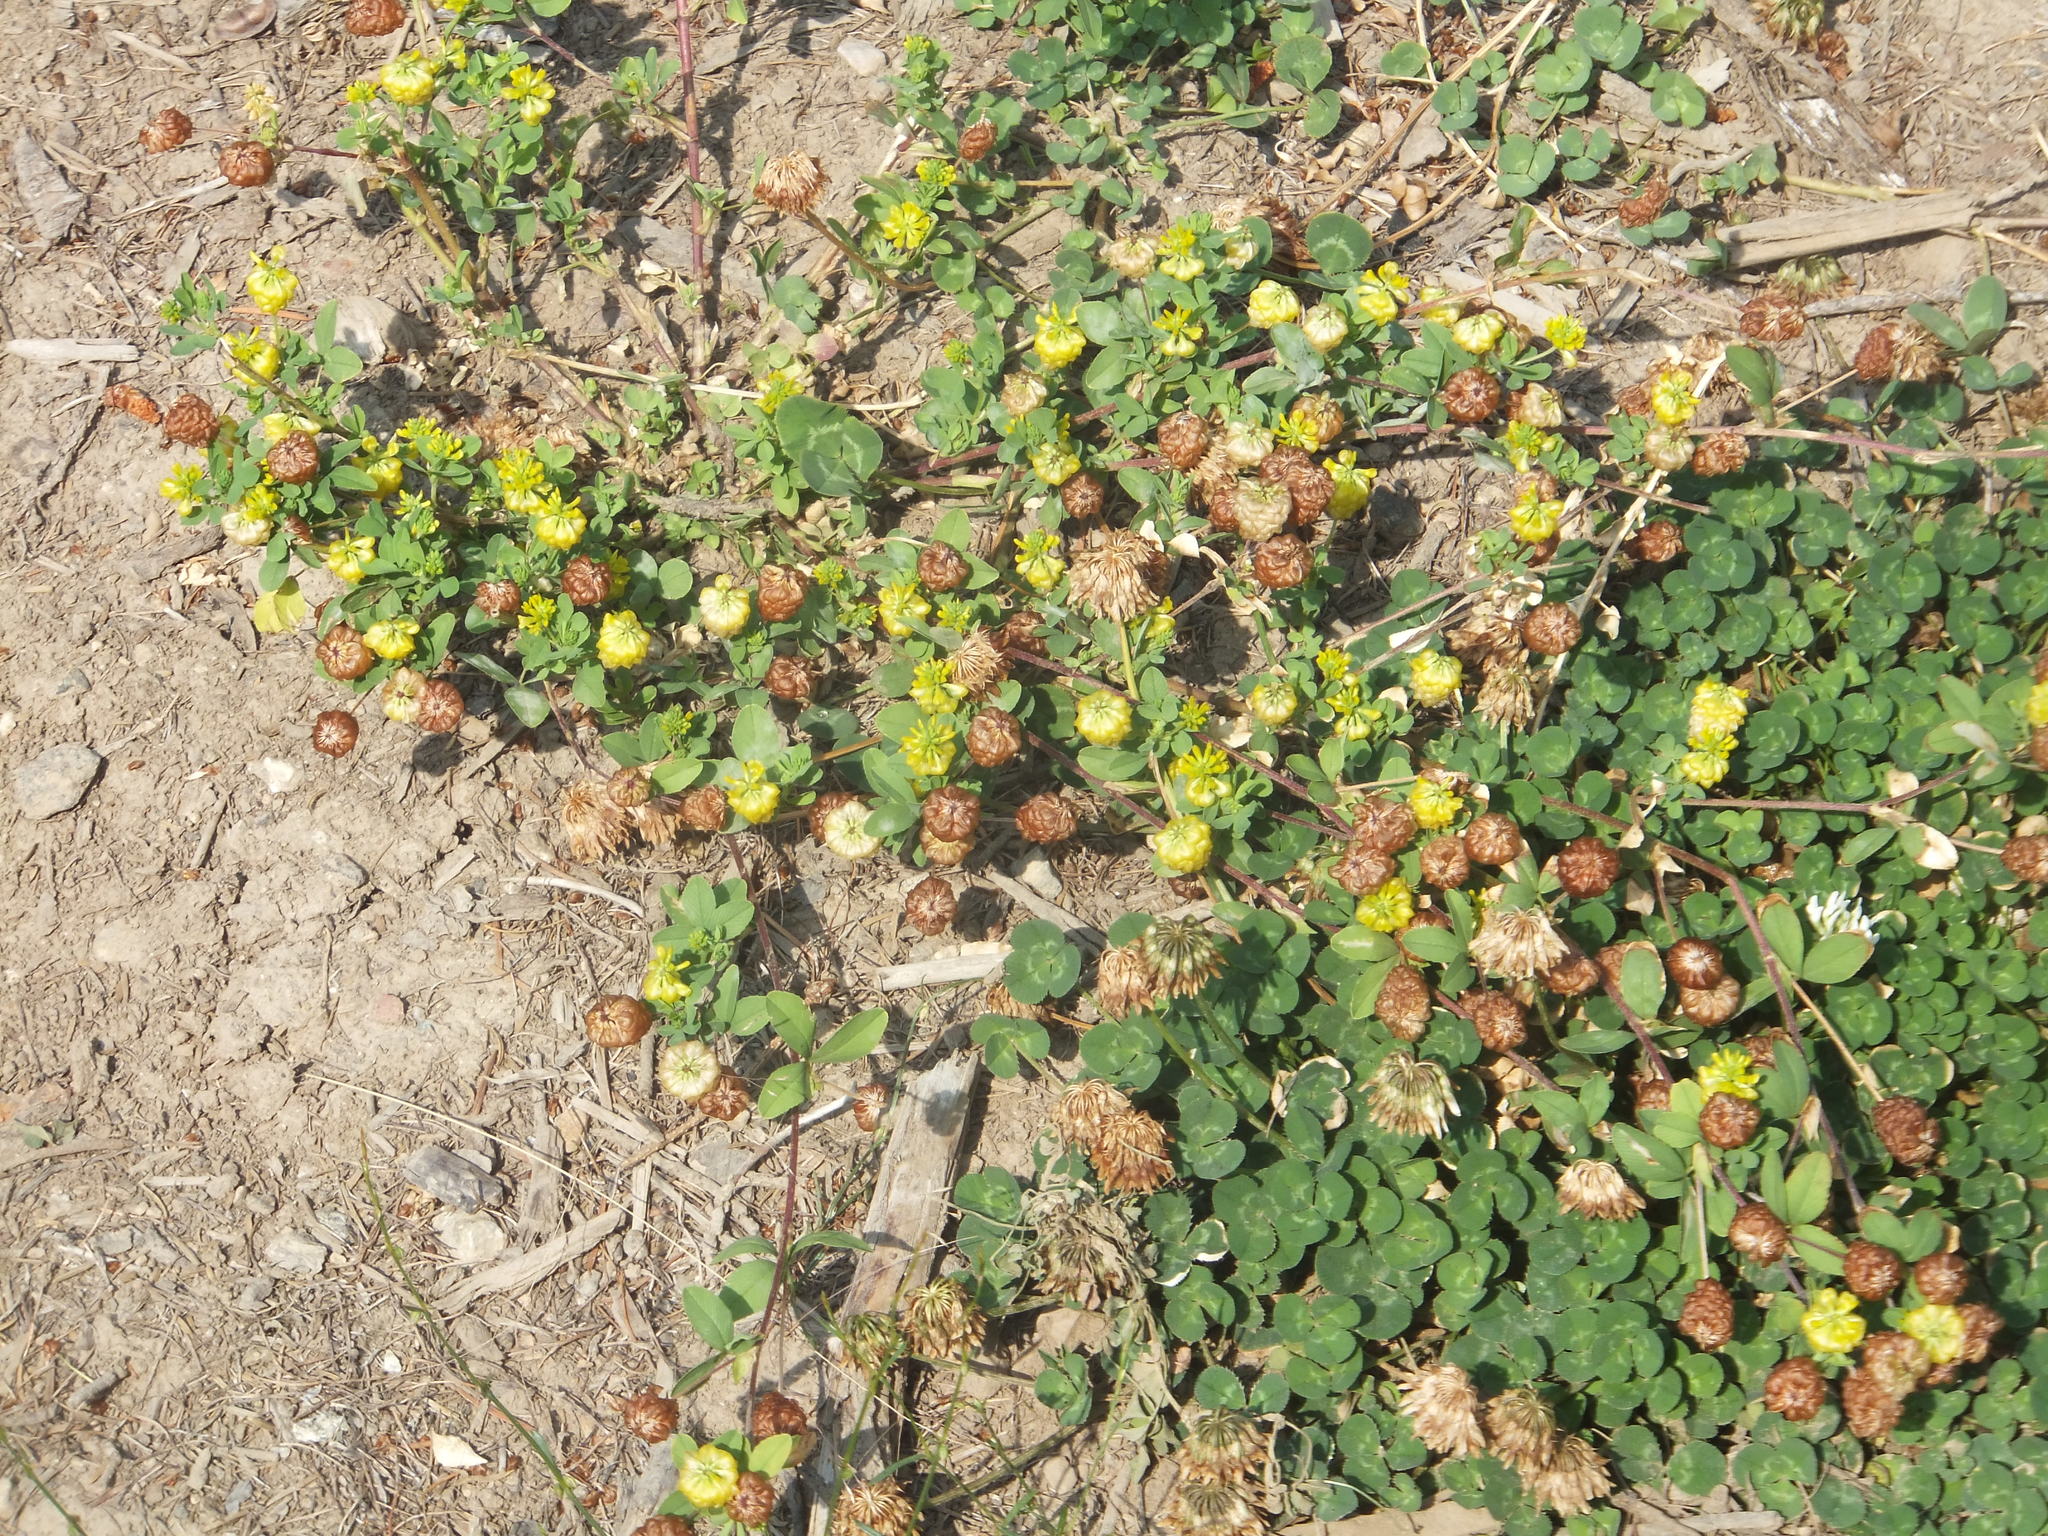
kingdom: Plantae
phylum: Tracheophyta
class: Magnoliopsida
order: Fabales
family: Fabaceae
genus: Trifolium
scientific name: Trifolium aureum
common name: Golden clover
